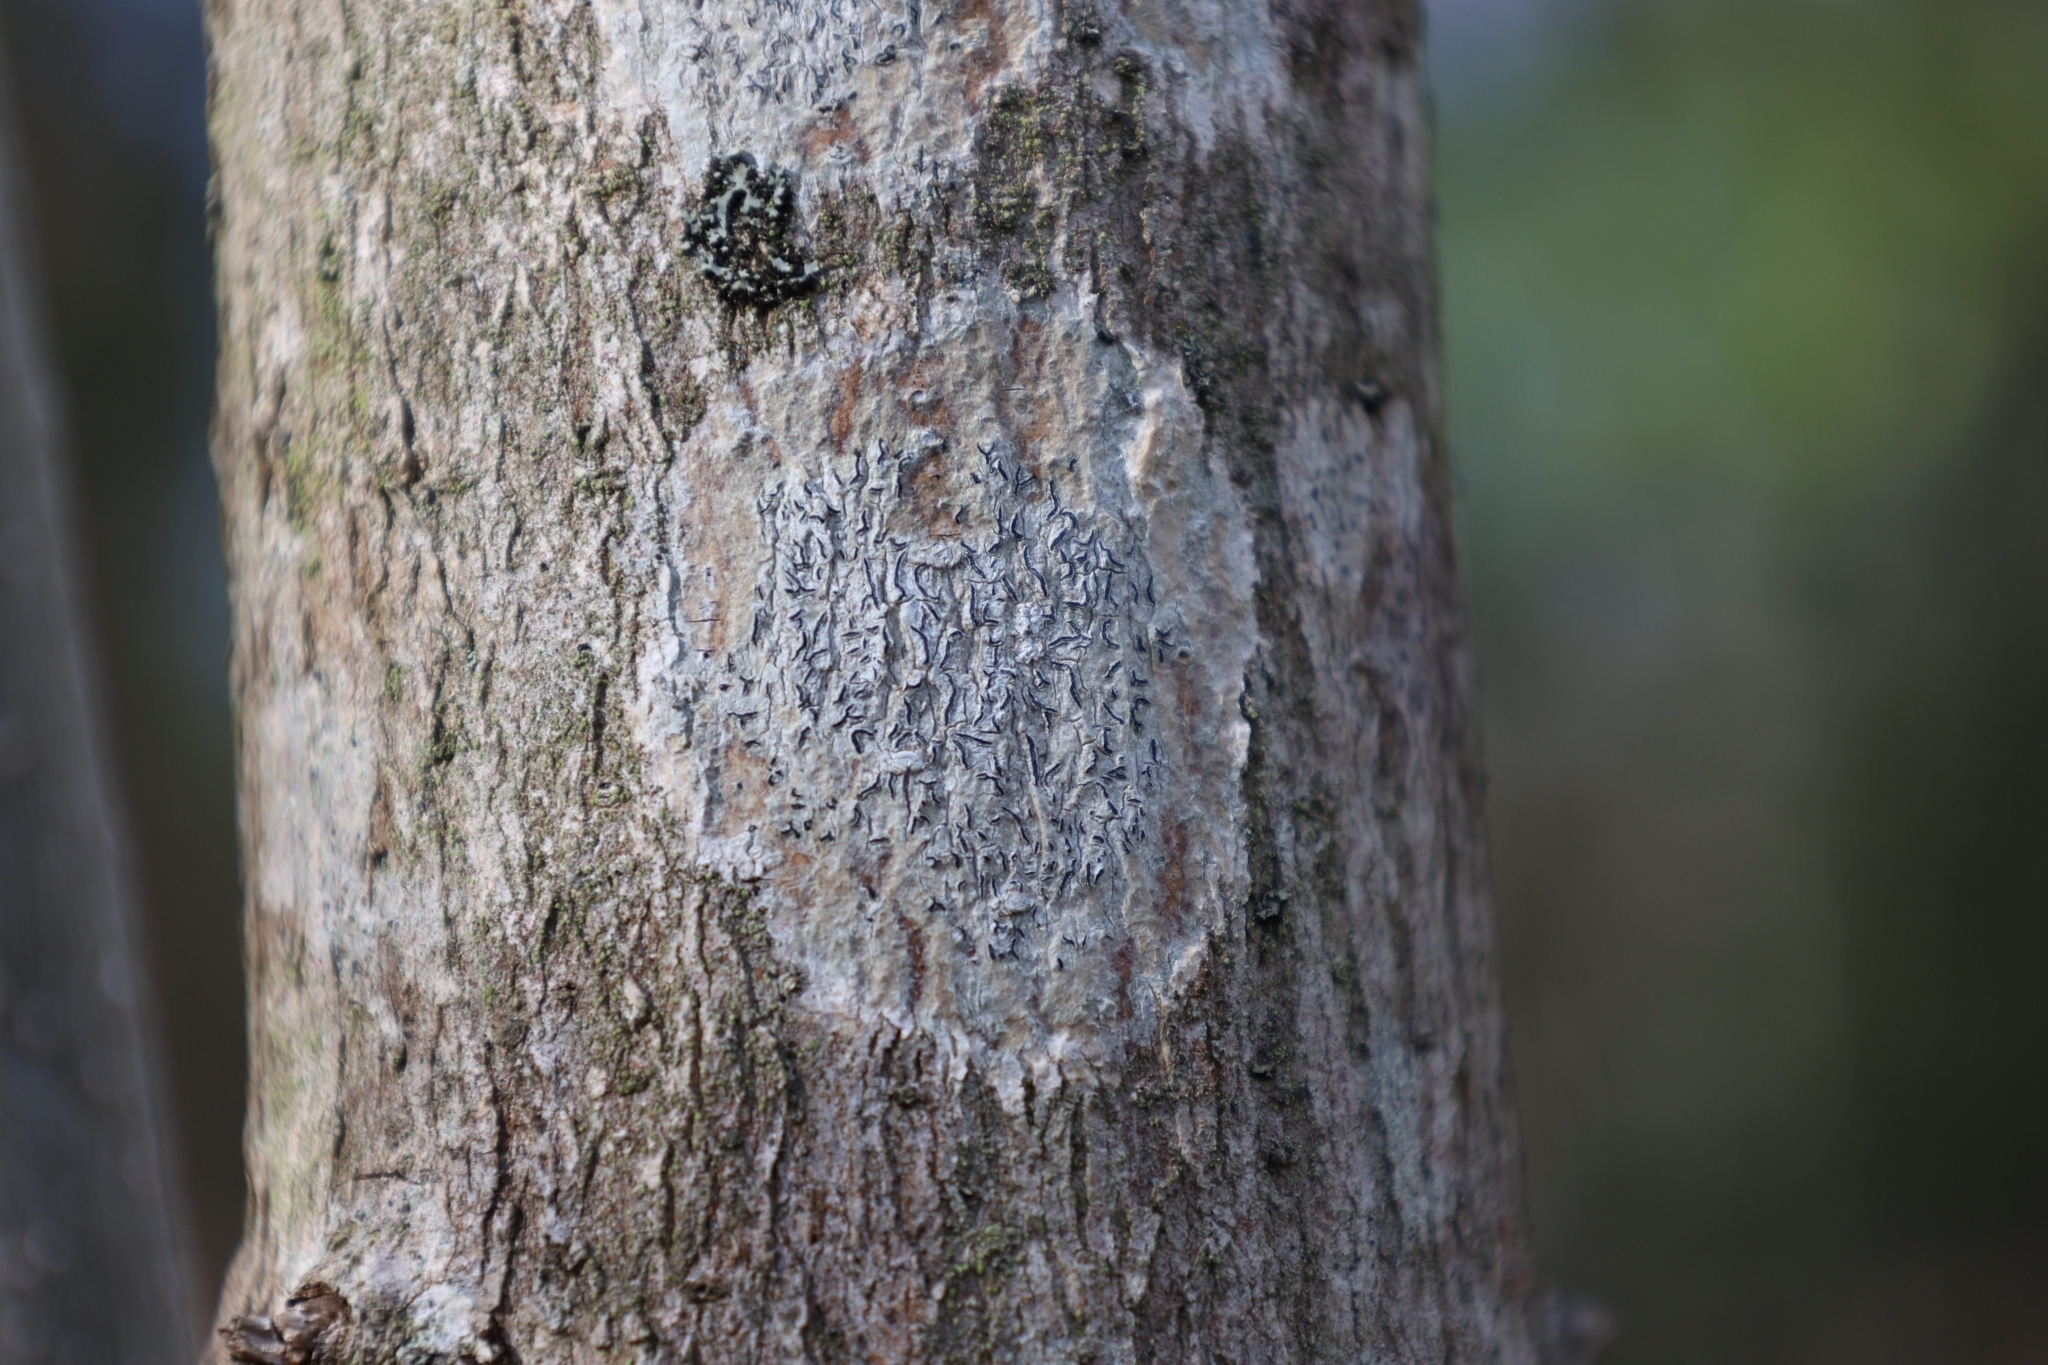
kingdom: Fungi
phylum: Ascomycota
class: Lecanoromycetes
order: Ostropales
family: Graphidaceae
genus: Graphis
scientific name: Graphis scripta
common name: Script lichen
